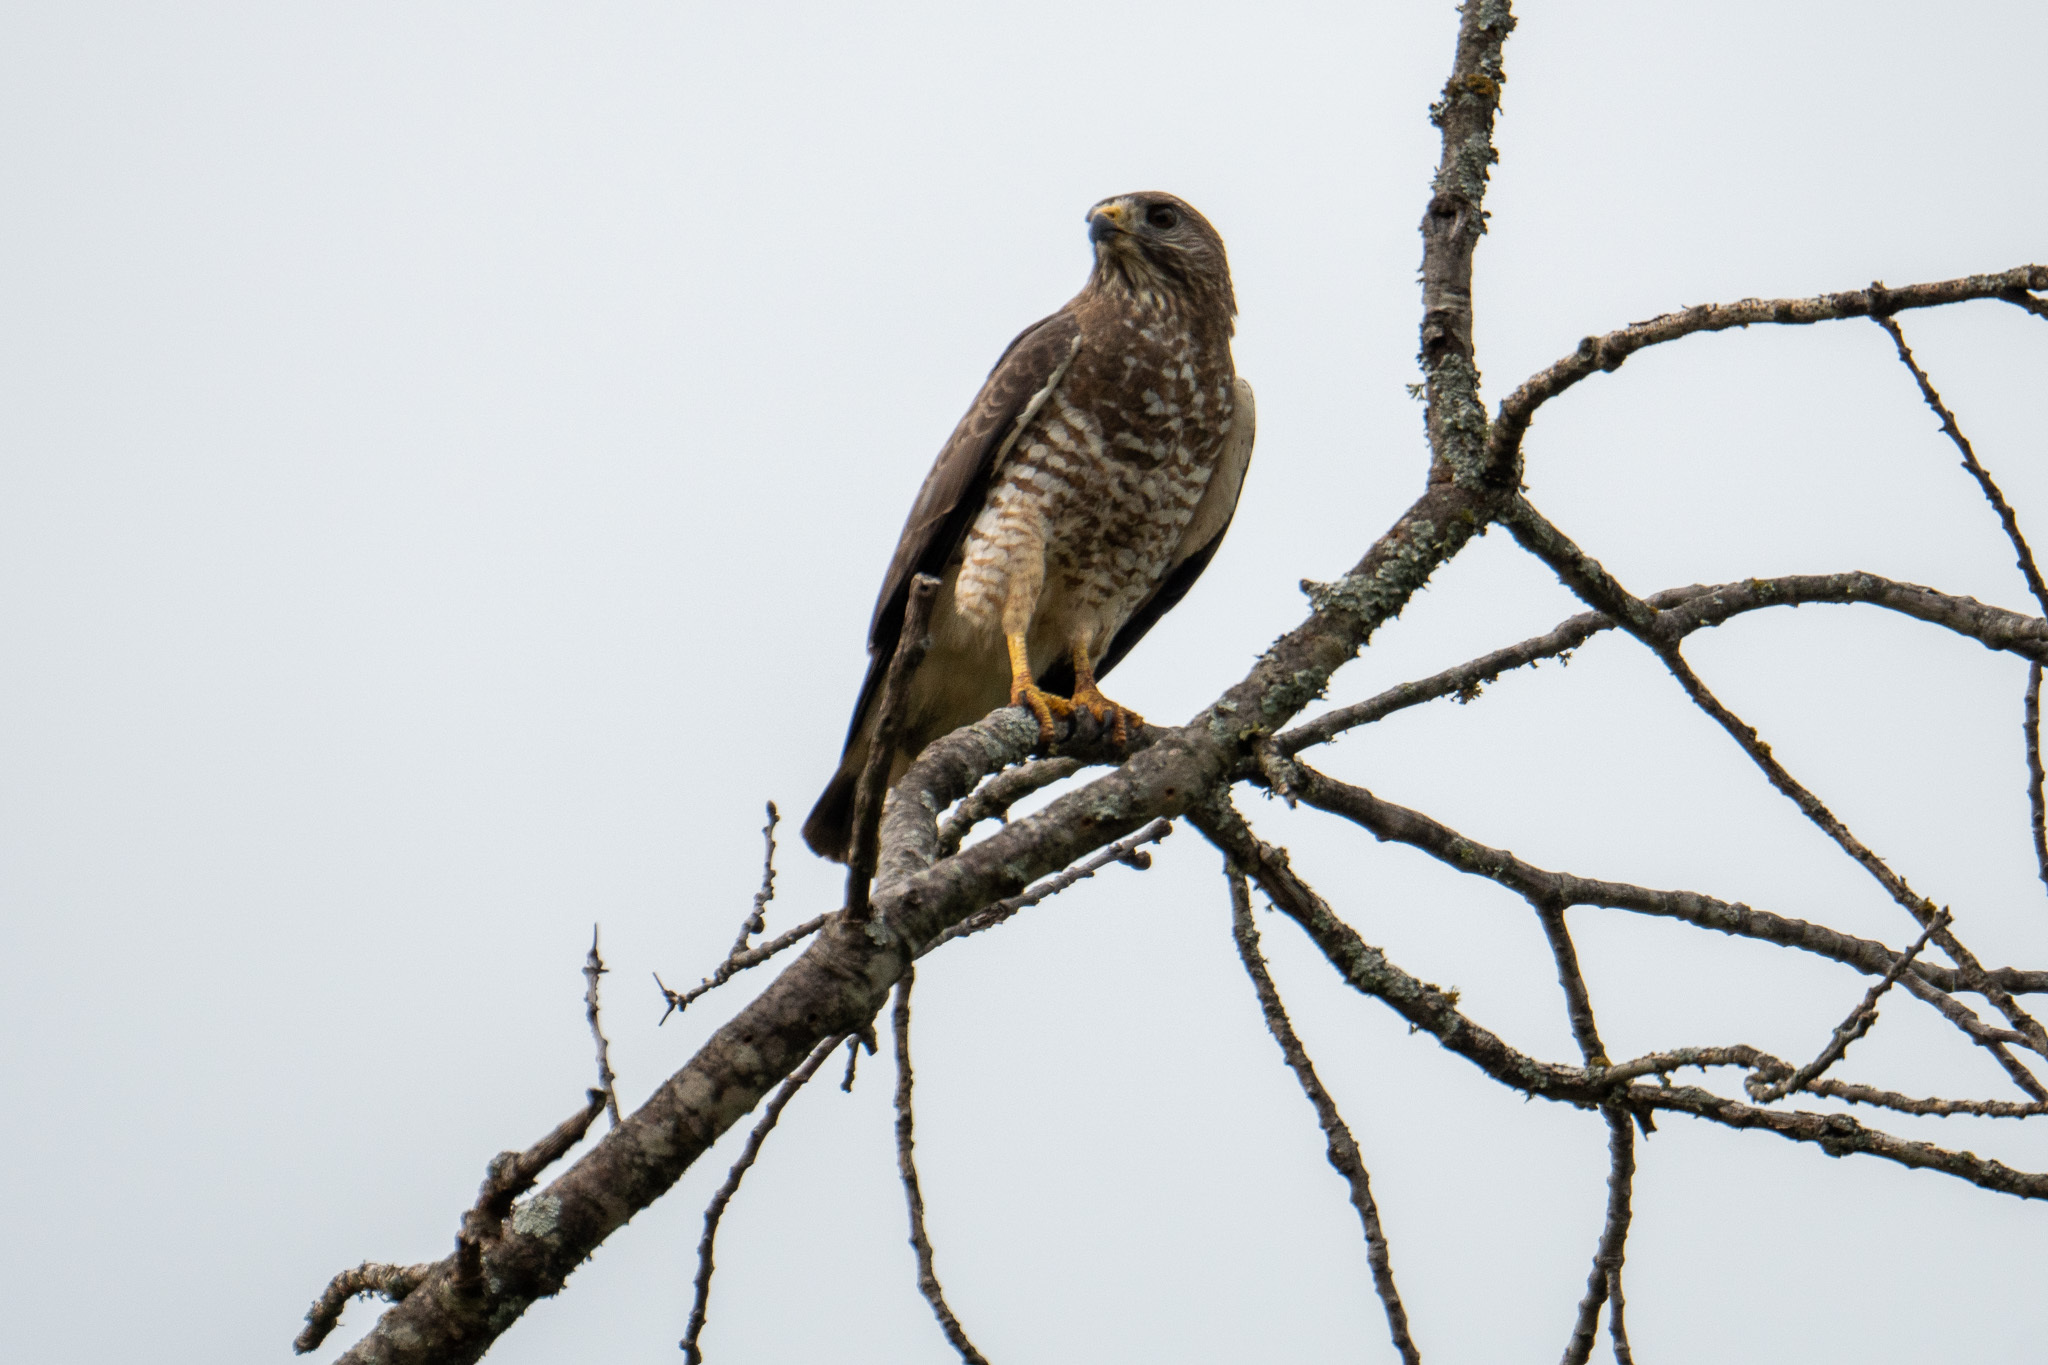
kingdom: Animalia
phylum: Chordata
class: Aves
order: Accipitriformes
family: Accipitridae
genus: Buteo
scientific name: Buteo platypterus
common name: Broad-winged hawk
